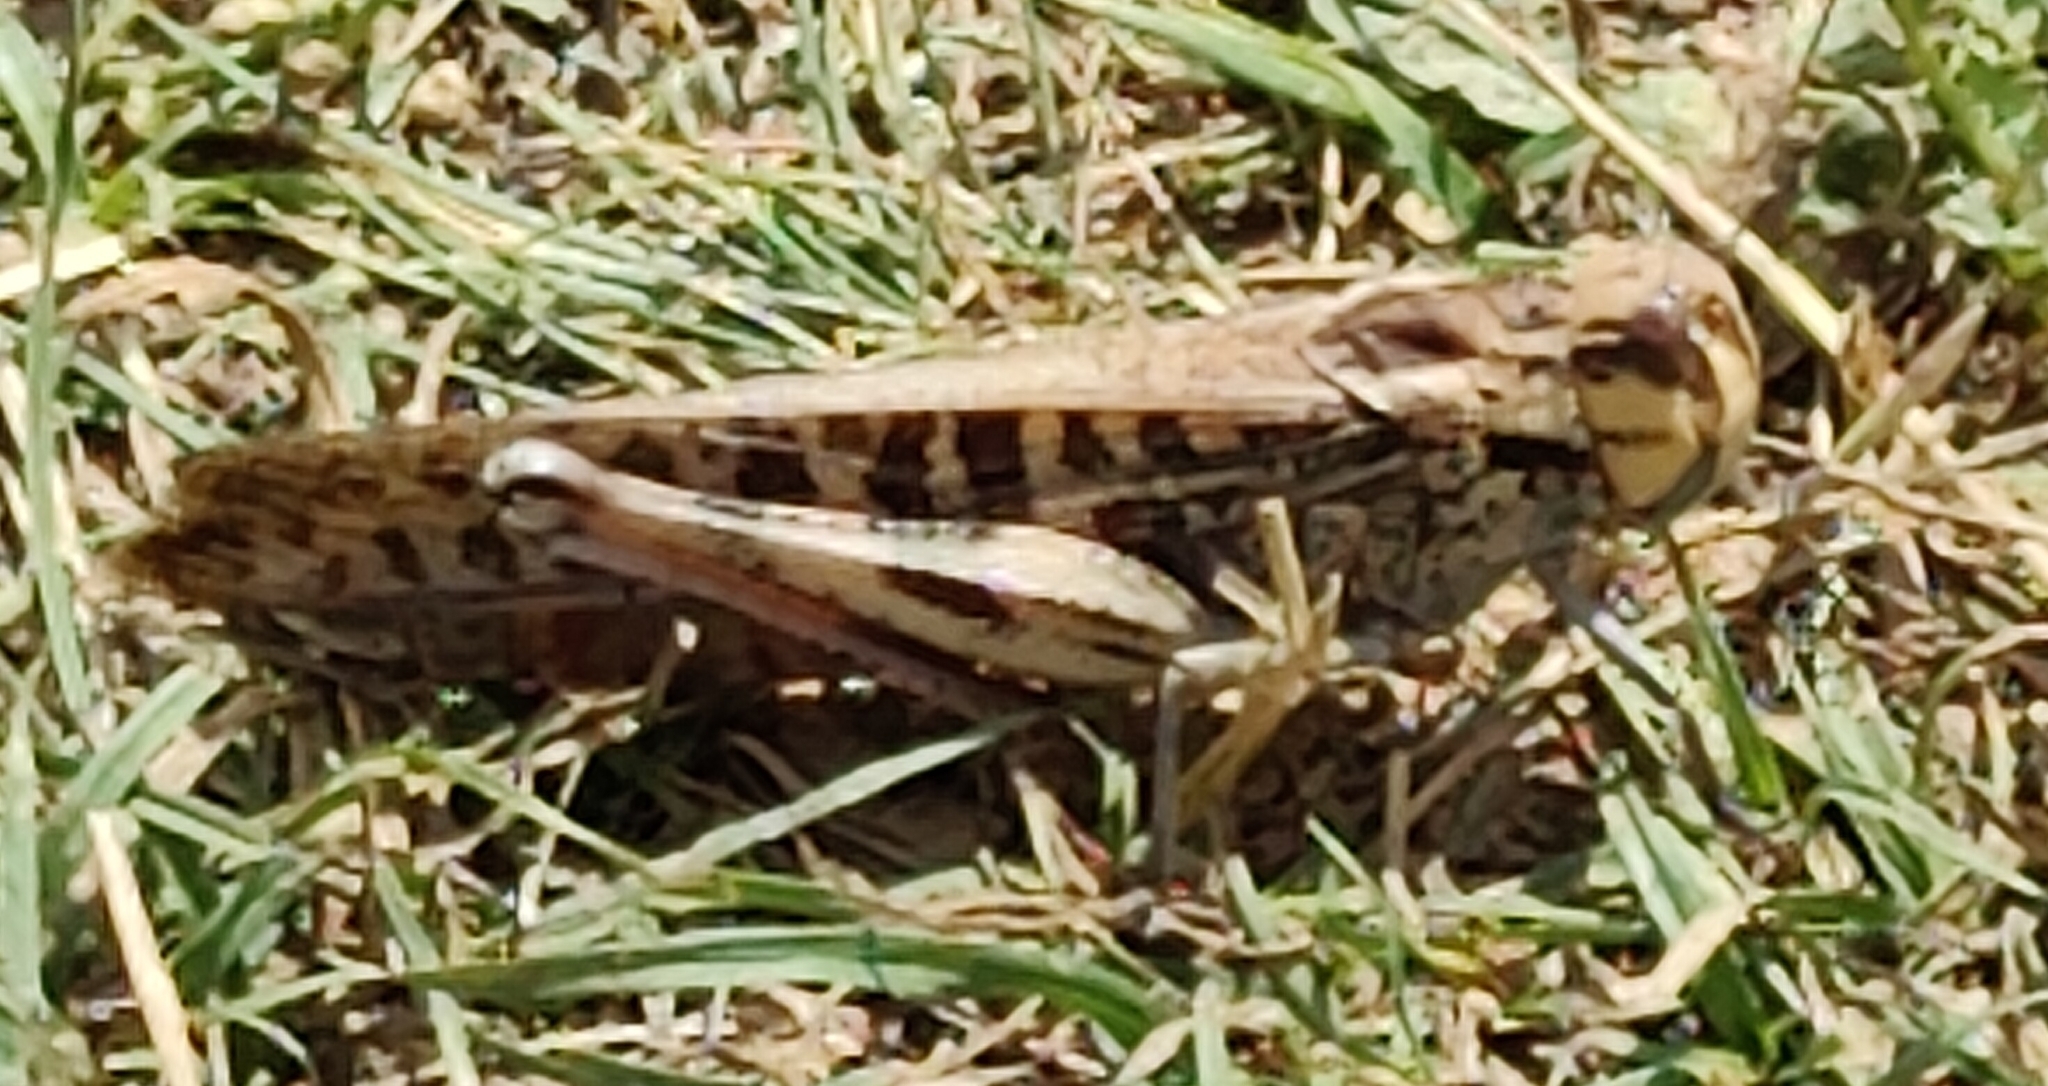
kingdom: Animalia
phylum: Arthropoda
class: Insecta
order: Orthoptera
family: Acrididae
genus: Locusta
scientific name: Locusta migratoria
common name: Migratory locust
